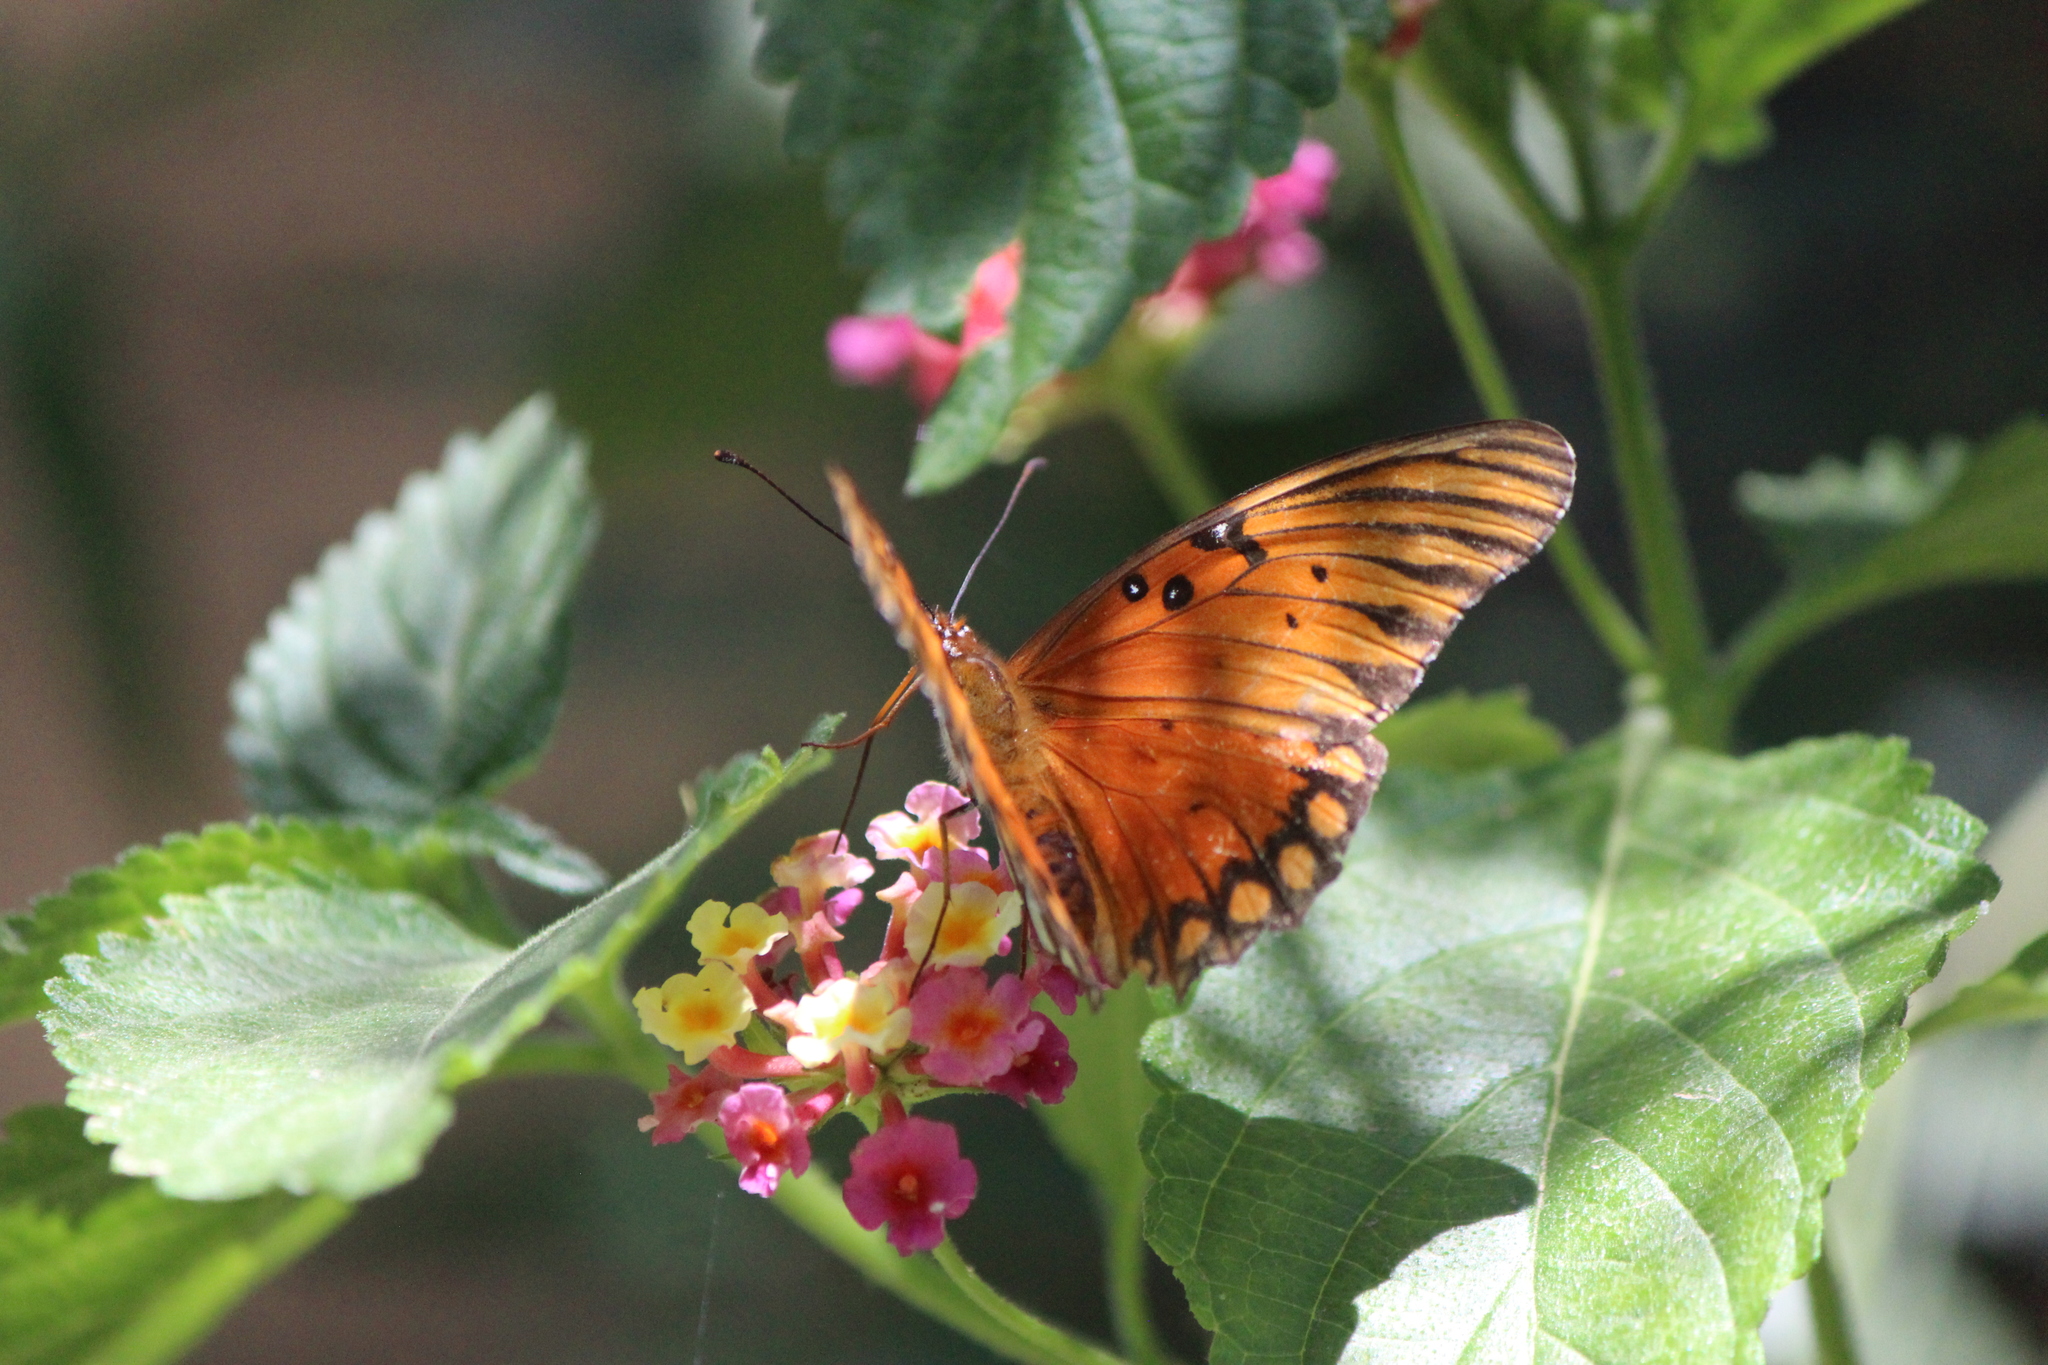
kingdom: Animalia
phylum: Arthropoda
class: Insecta
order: Lepidoptera
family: Nymphalidae
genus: Dione
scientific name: Dione vanillae
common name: Gulf fritillary
